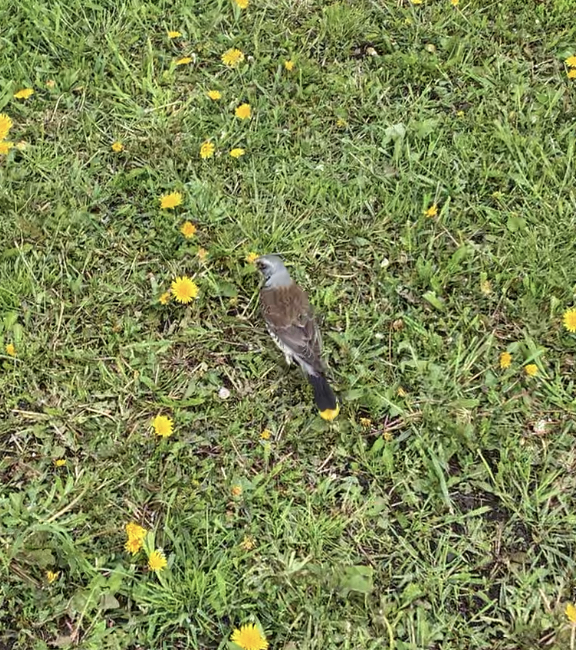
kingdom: Animalia
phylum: Chordata
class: Aves
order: Passeriformes
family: Turdidae
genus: Turdus
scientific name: Turdus pilaris
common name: Fieldfare
